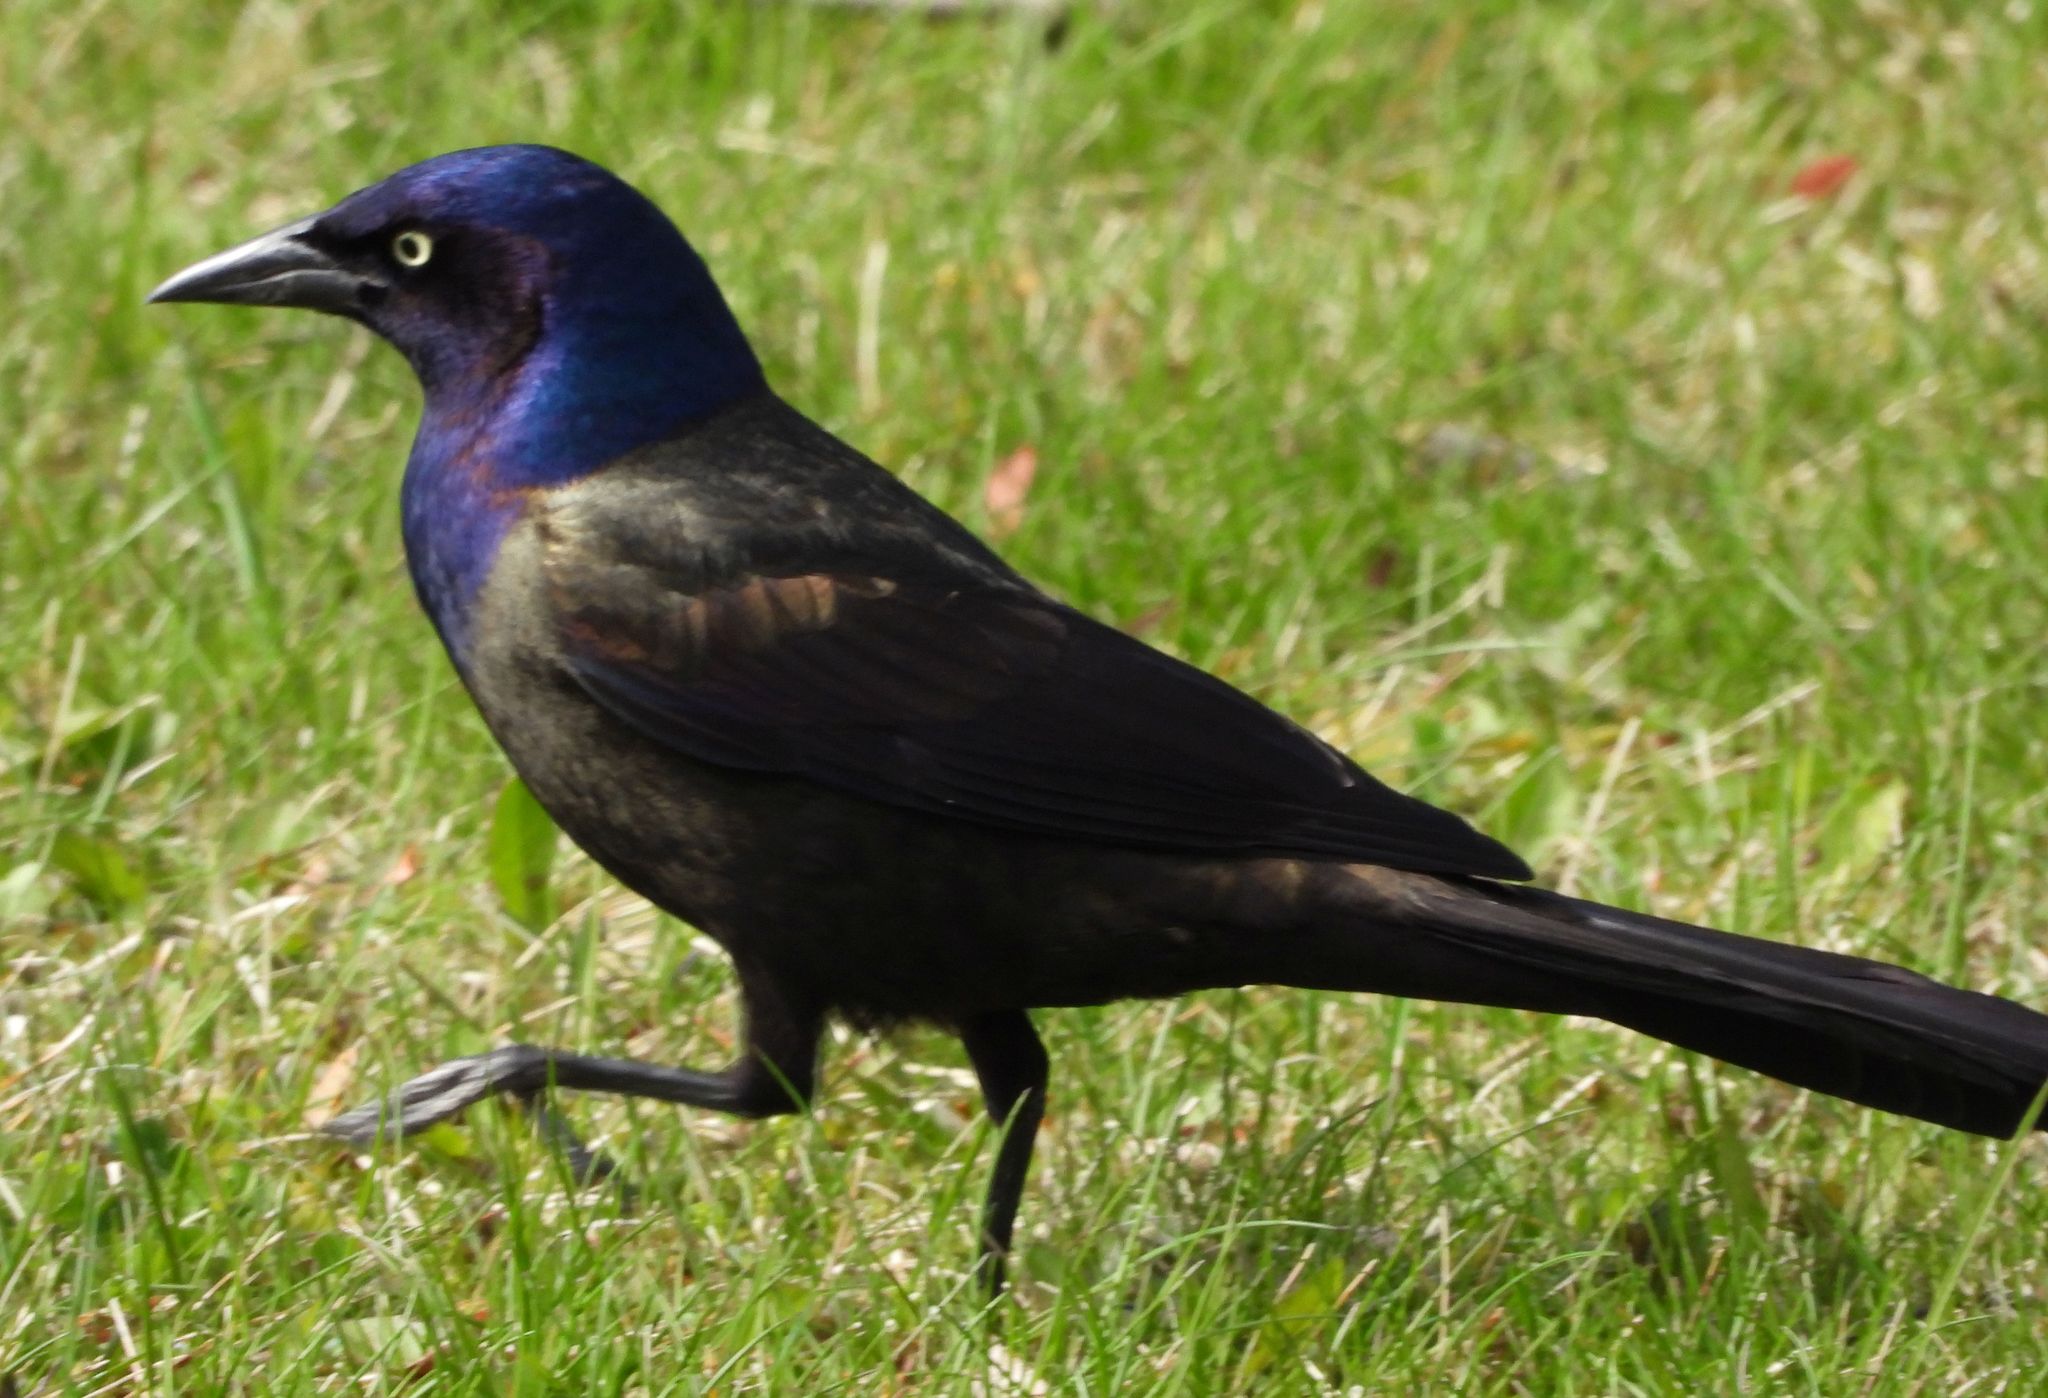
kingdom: Animalia
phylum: Chordata
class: Aves
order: Passeriformes
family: Icteridae
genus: Quiscalus
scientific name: Quiscalus quiscula
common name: Common grackle
